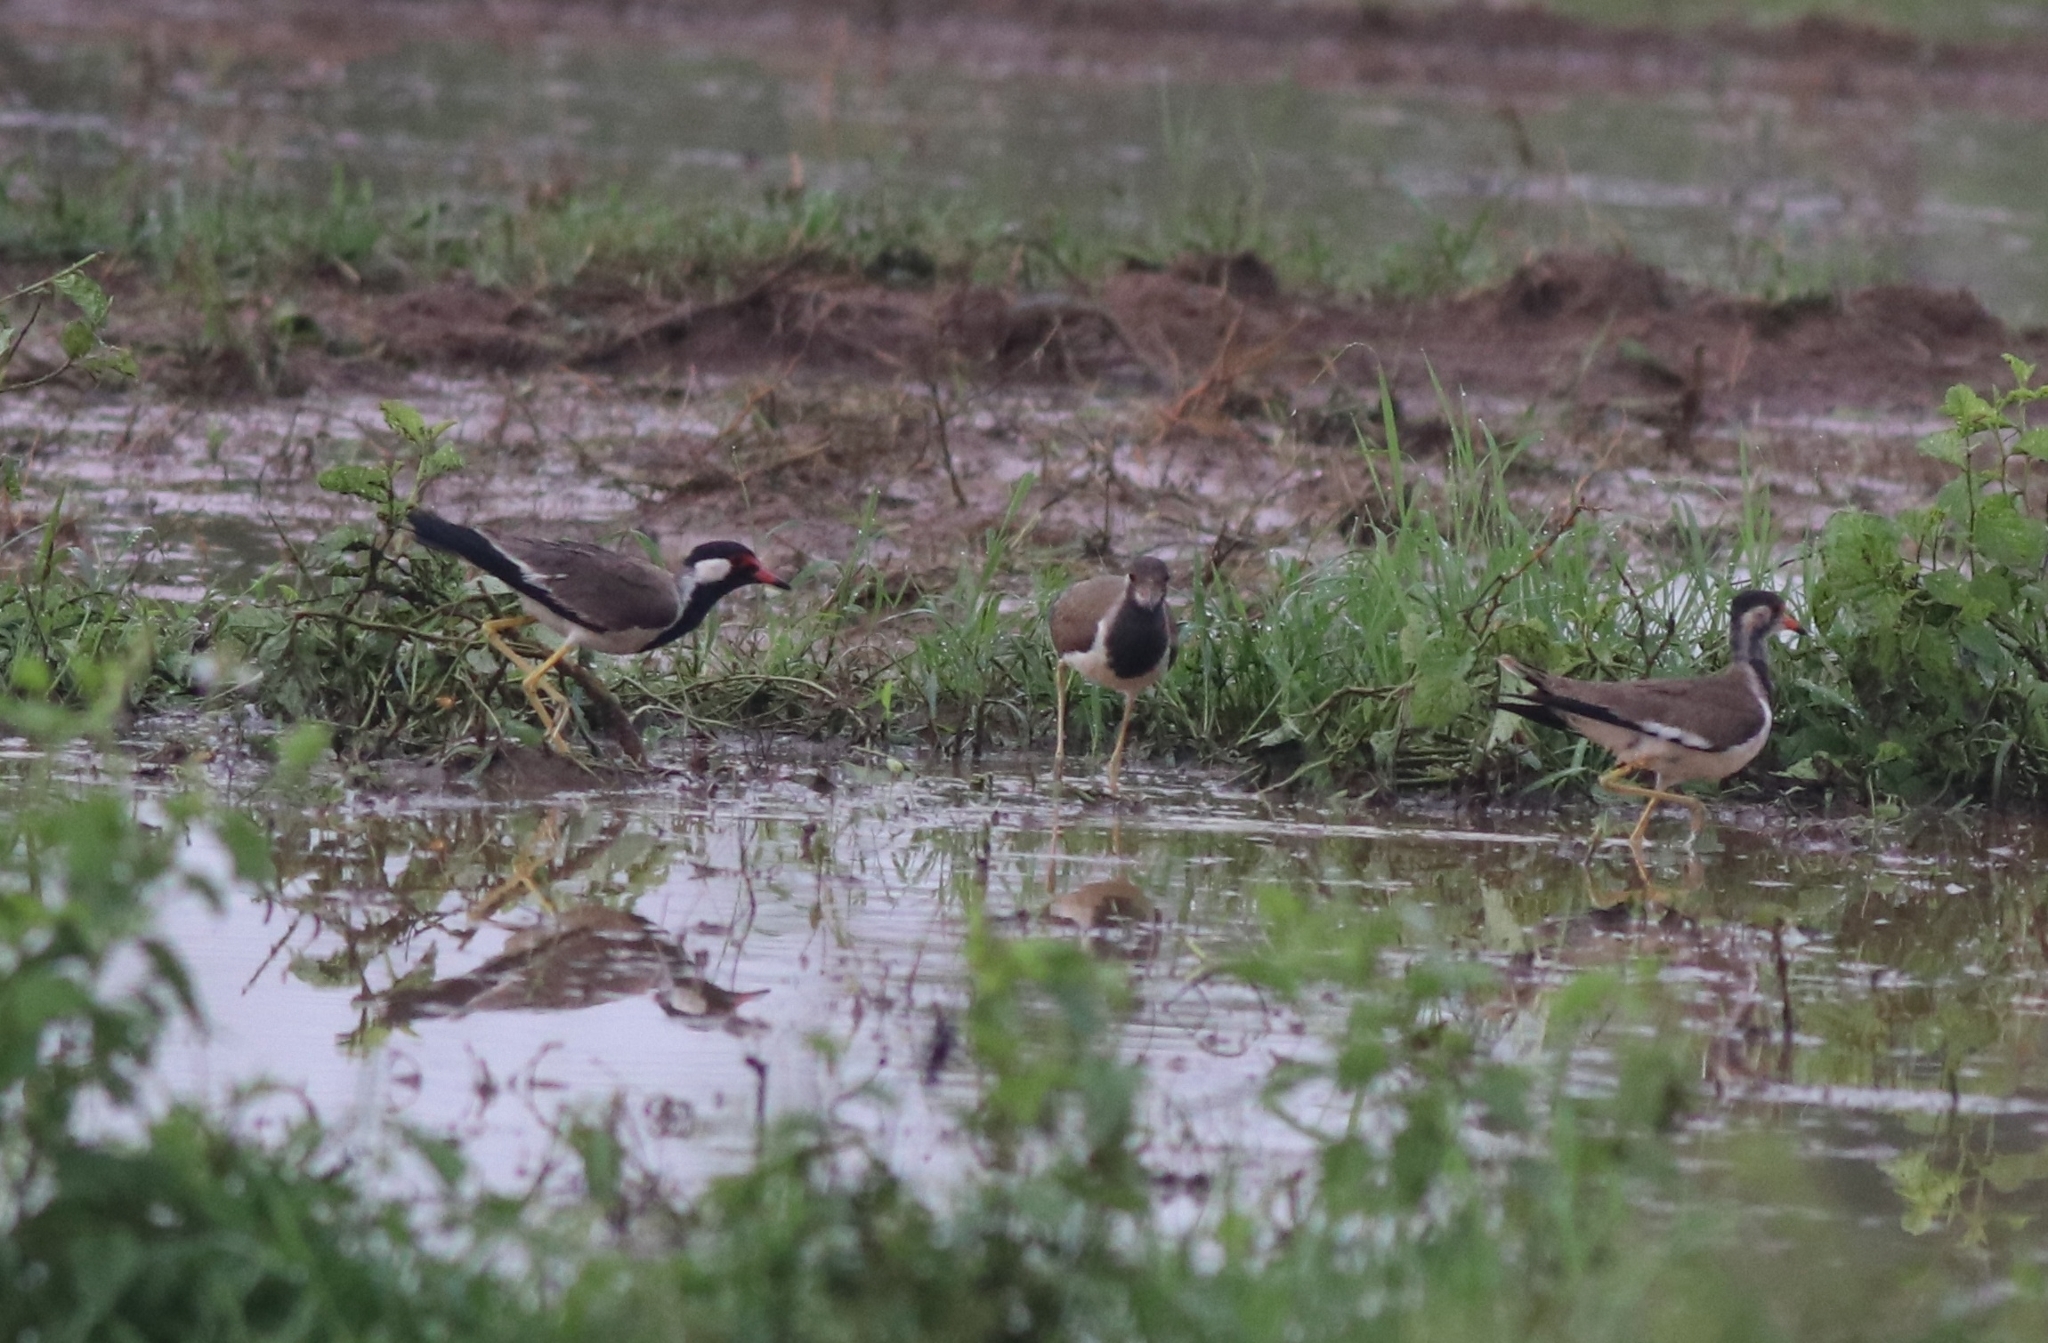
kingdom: Animalia
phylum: Chordata
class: Aves
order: Charadriiformes
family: Charadriidae
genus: Vanellus
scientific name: Vanellus indicus
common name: Red-wattled lapwing
